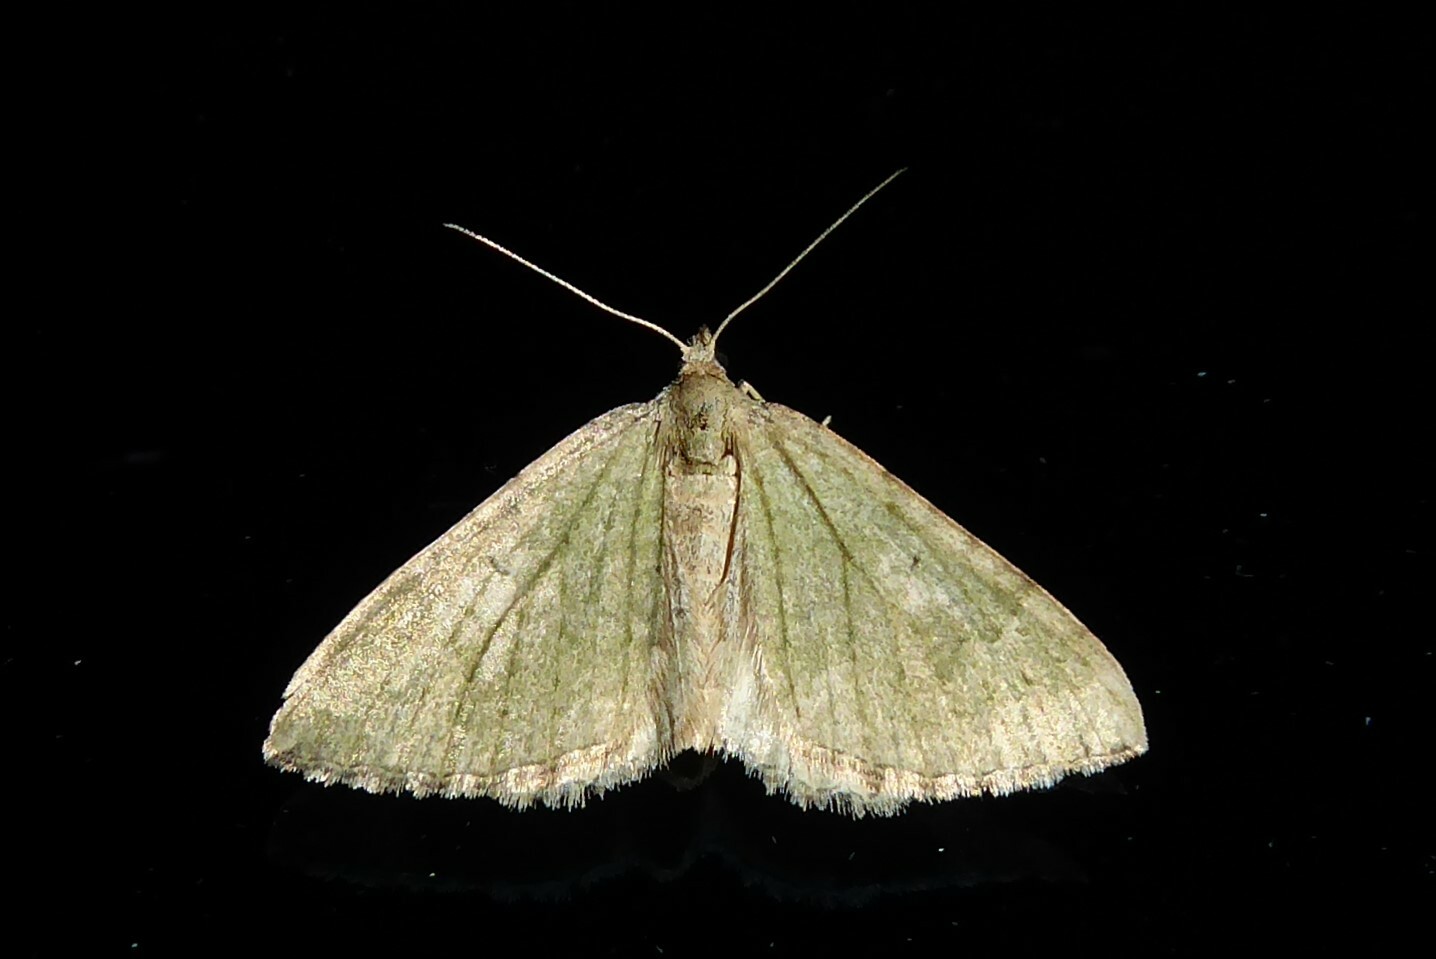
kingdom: Animalia
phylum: Arthropoda
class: Insecta
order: Lepidoptera
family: Geometridae
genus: Epyaxa
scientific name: Epyaxa rosearia
